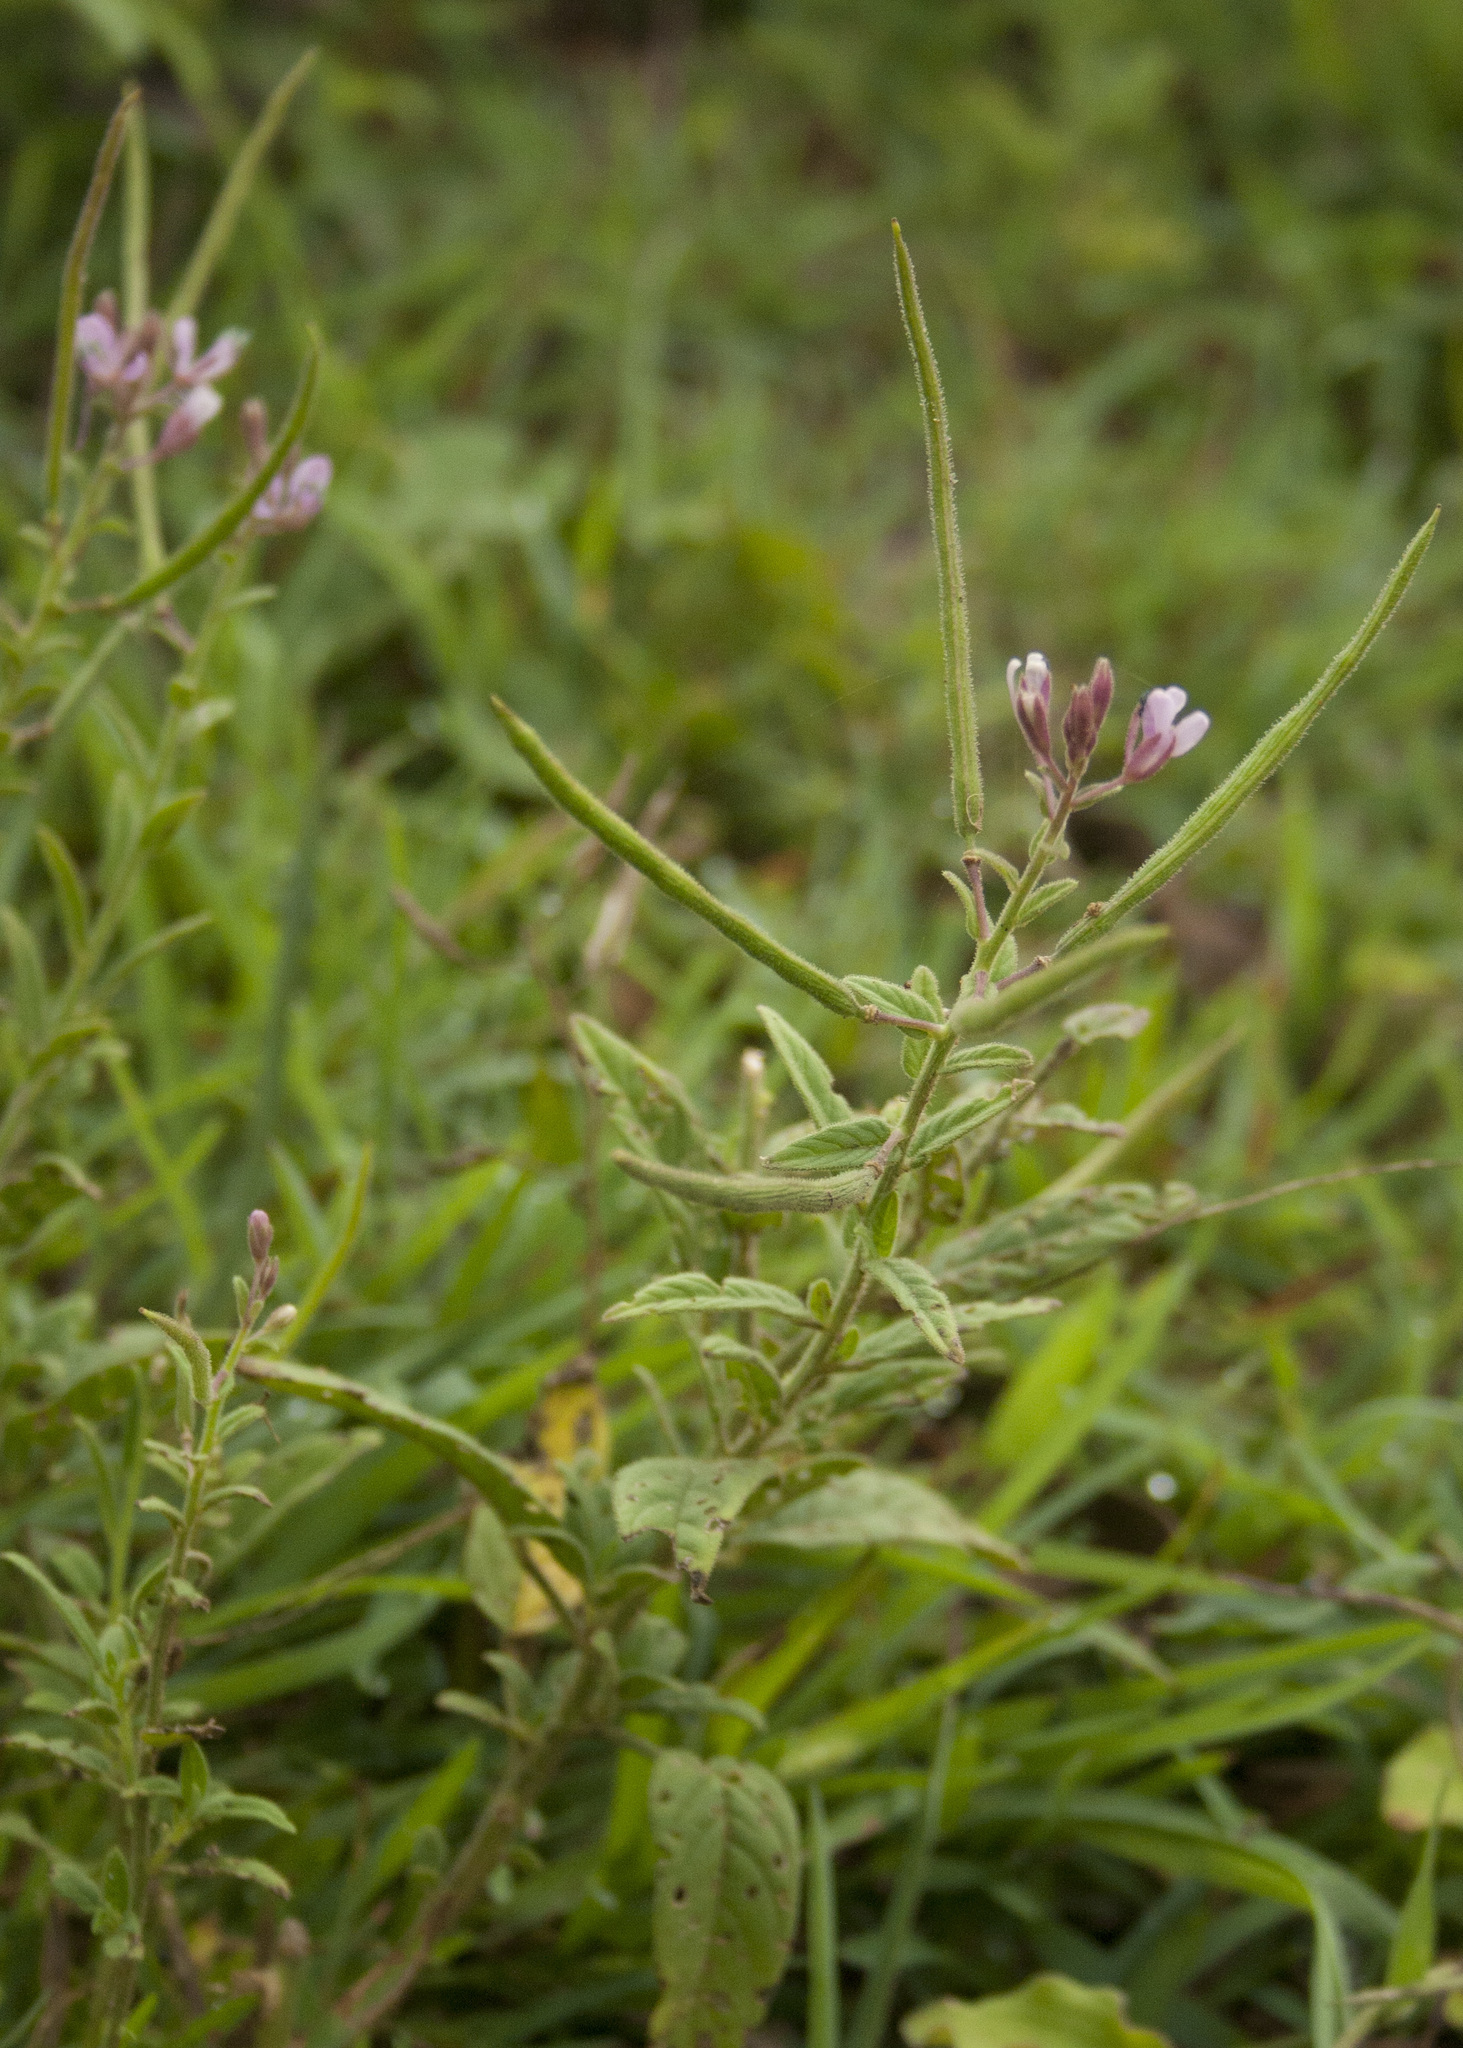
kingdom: Plantae
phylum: Tracheophyta
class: Magnoliopsida
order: Brassicales
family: Cleomaceae
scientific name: Cleomaceae
